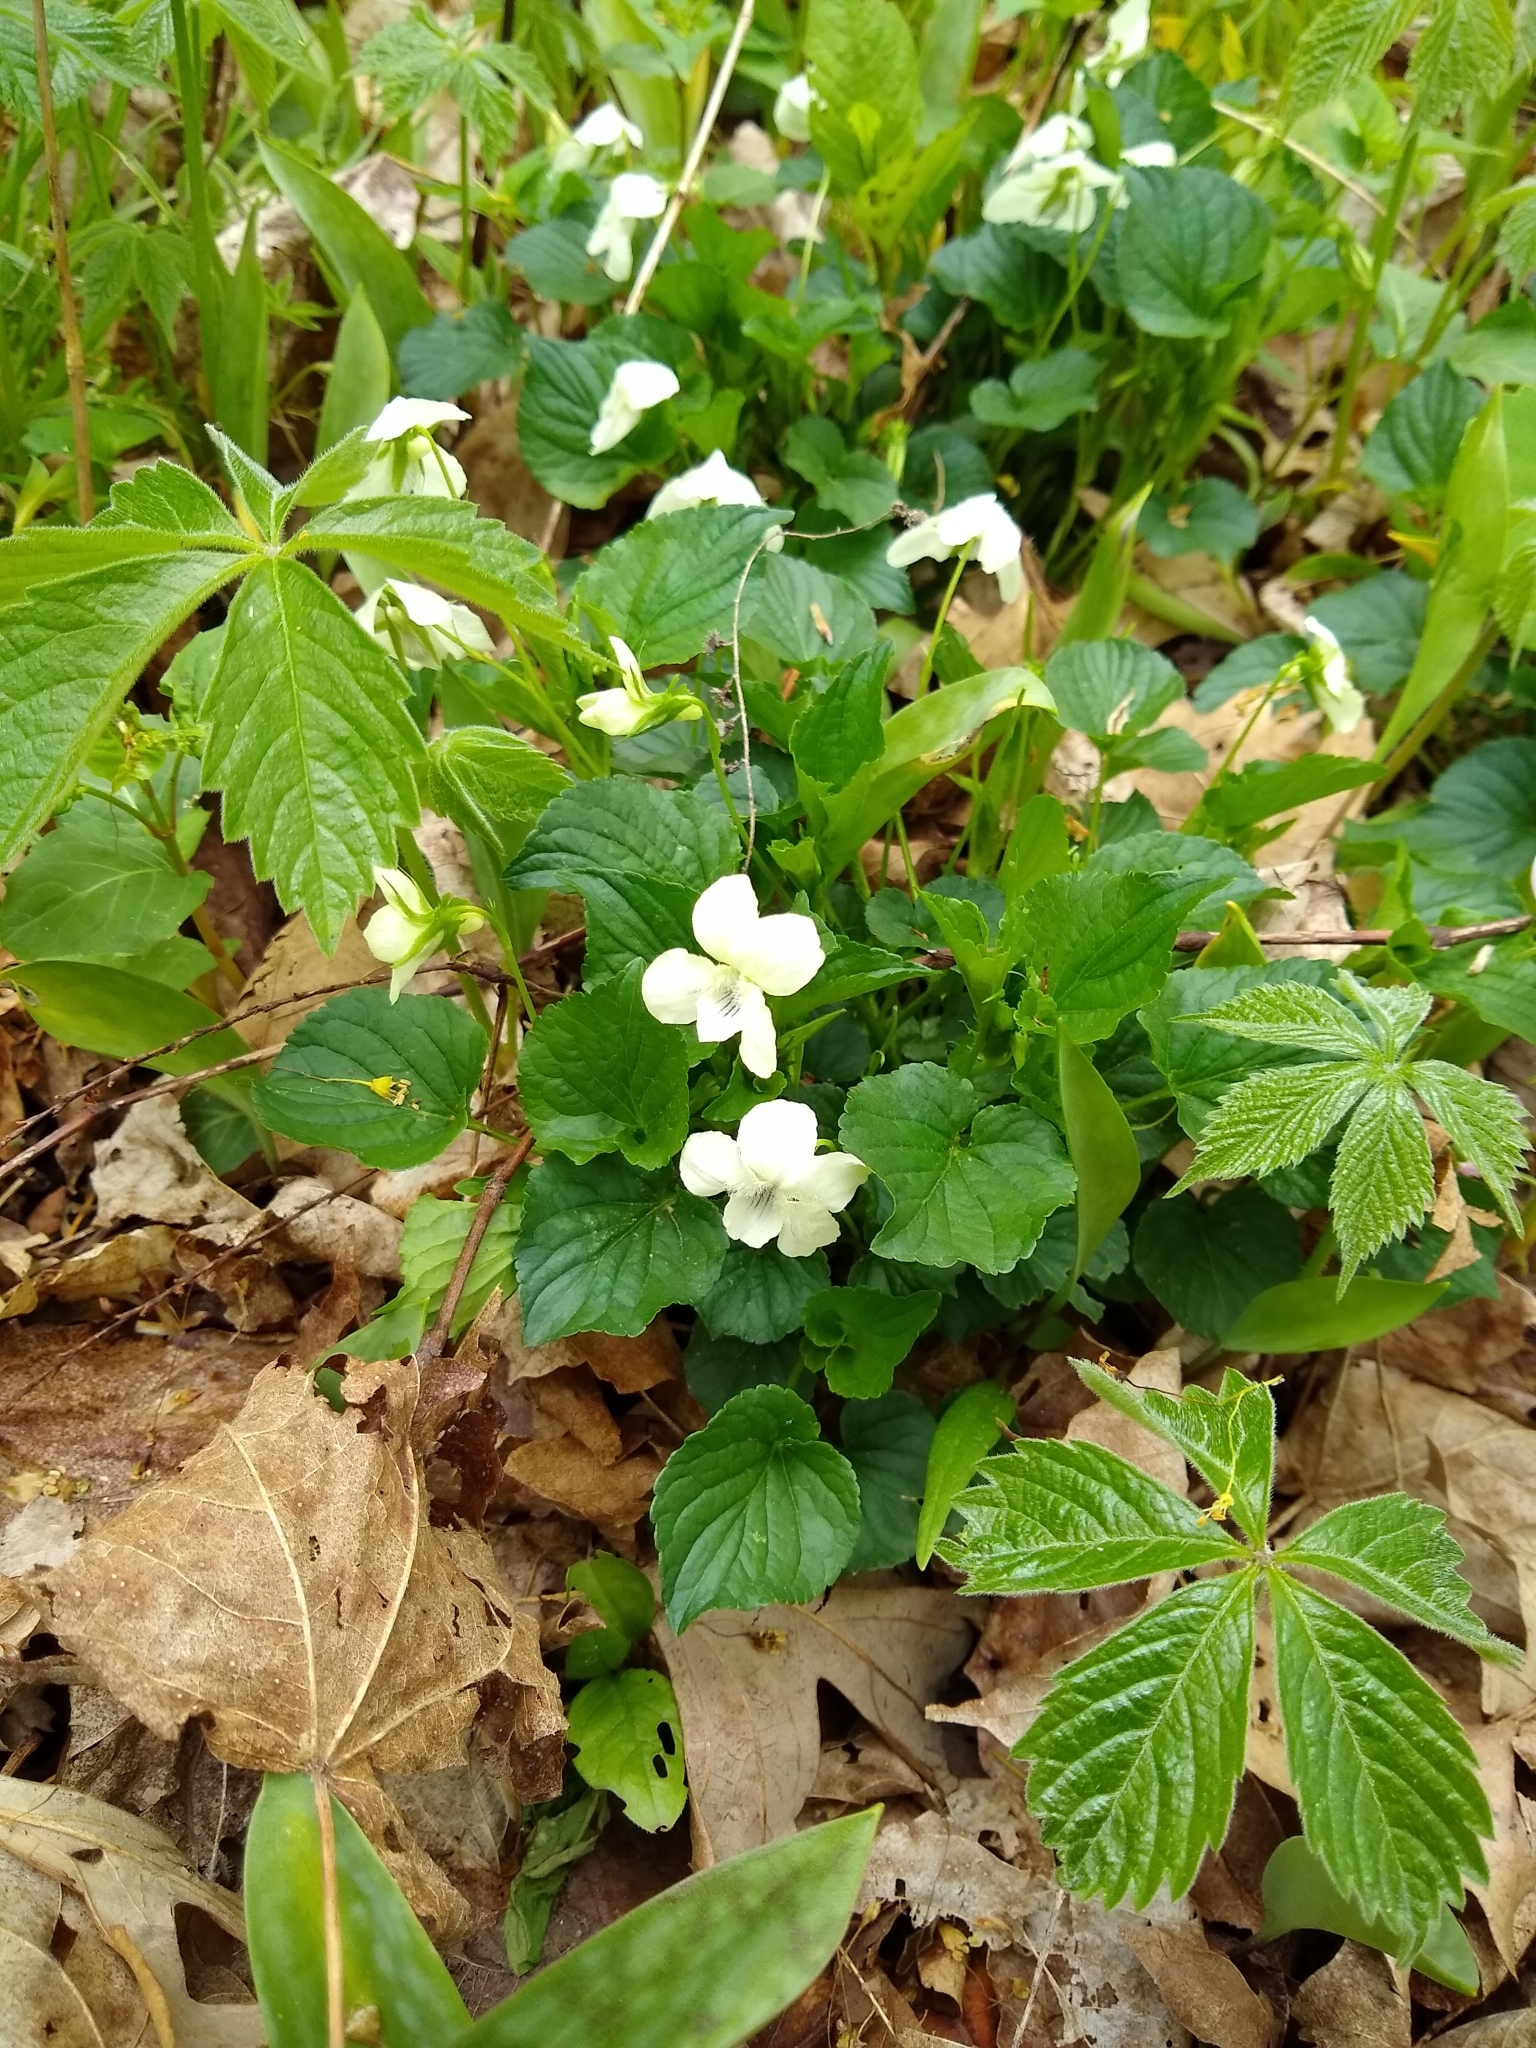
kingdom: Plantae
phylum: Tracheophyta
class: Magnoliopsida
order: Malpighiales
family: Violaceae
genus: Viola
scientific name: Viola striata
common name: Cream violet
